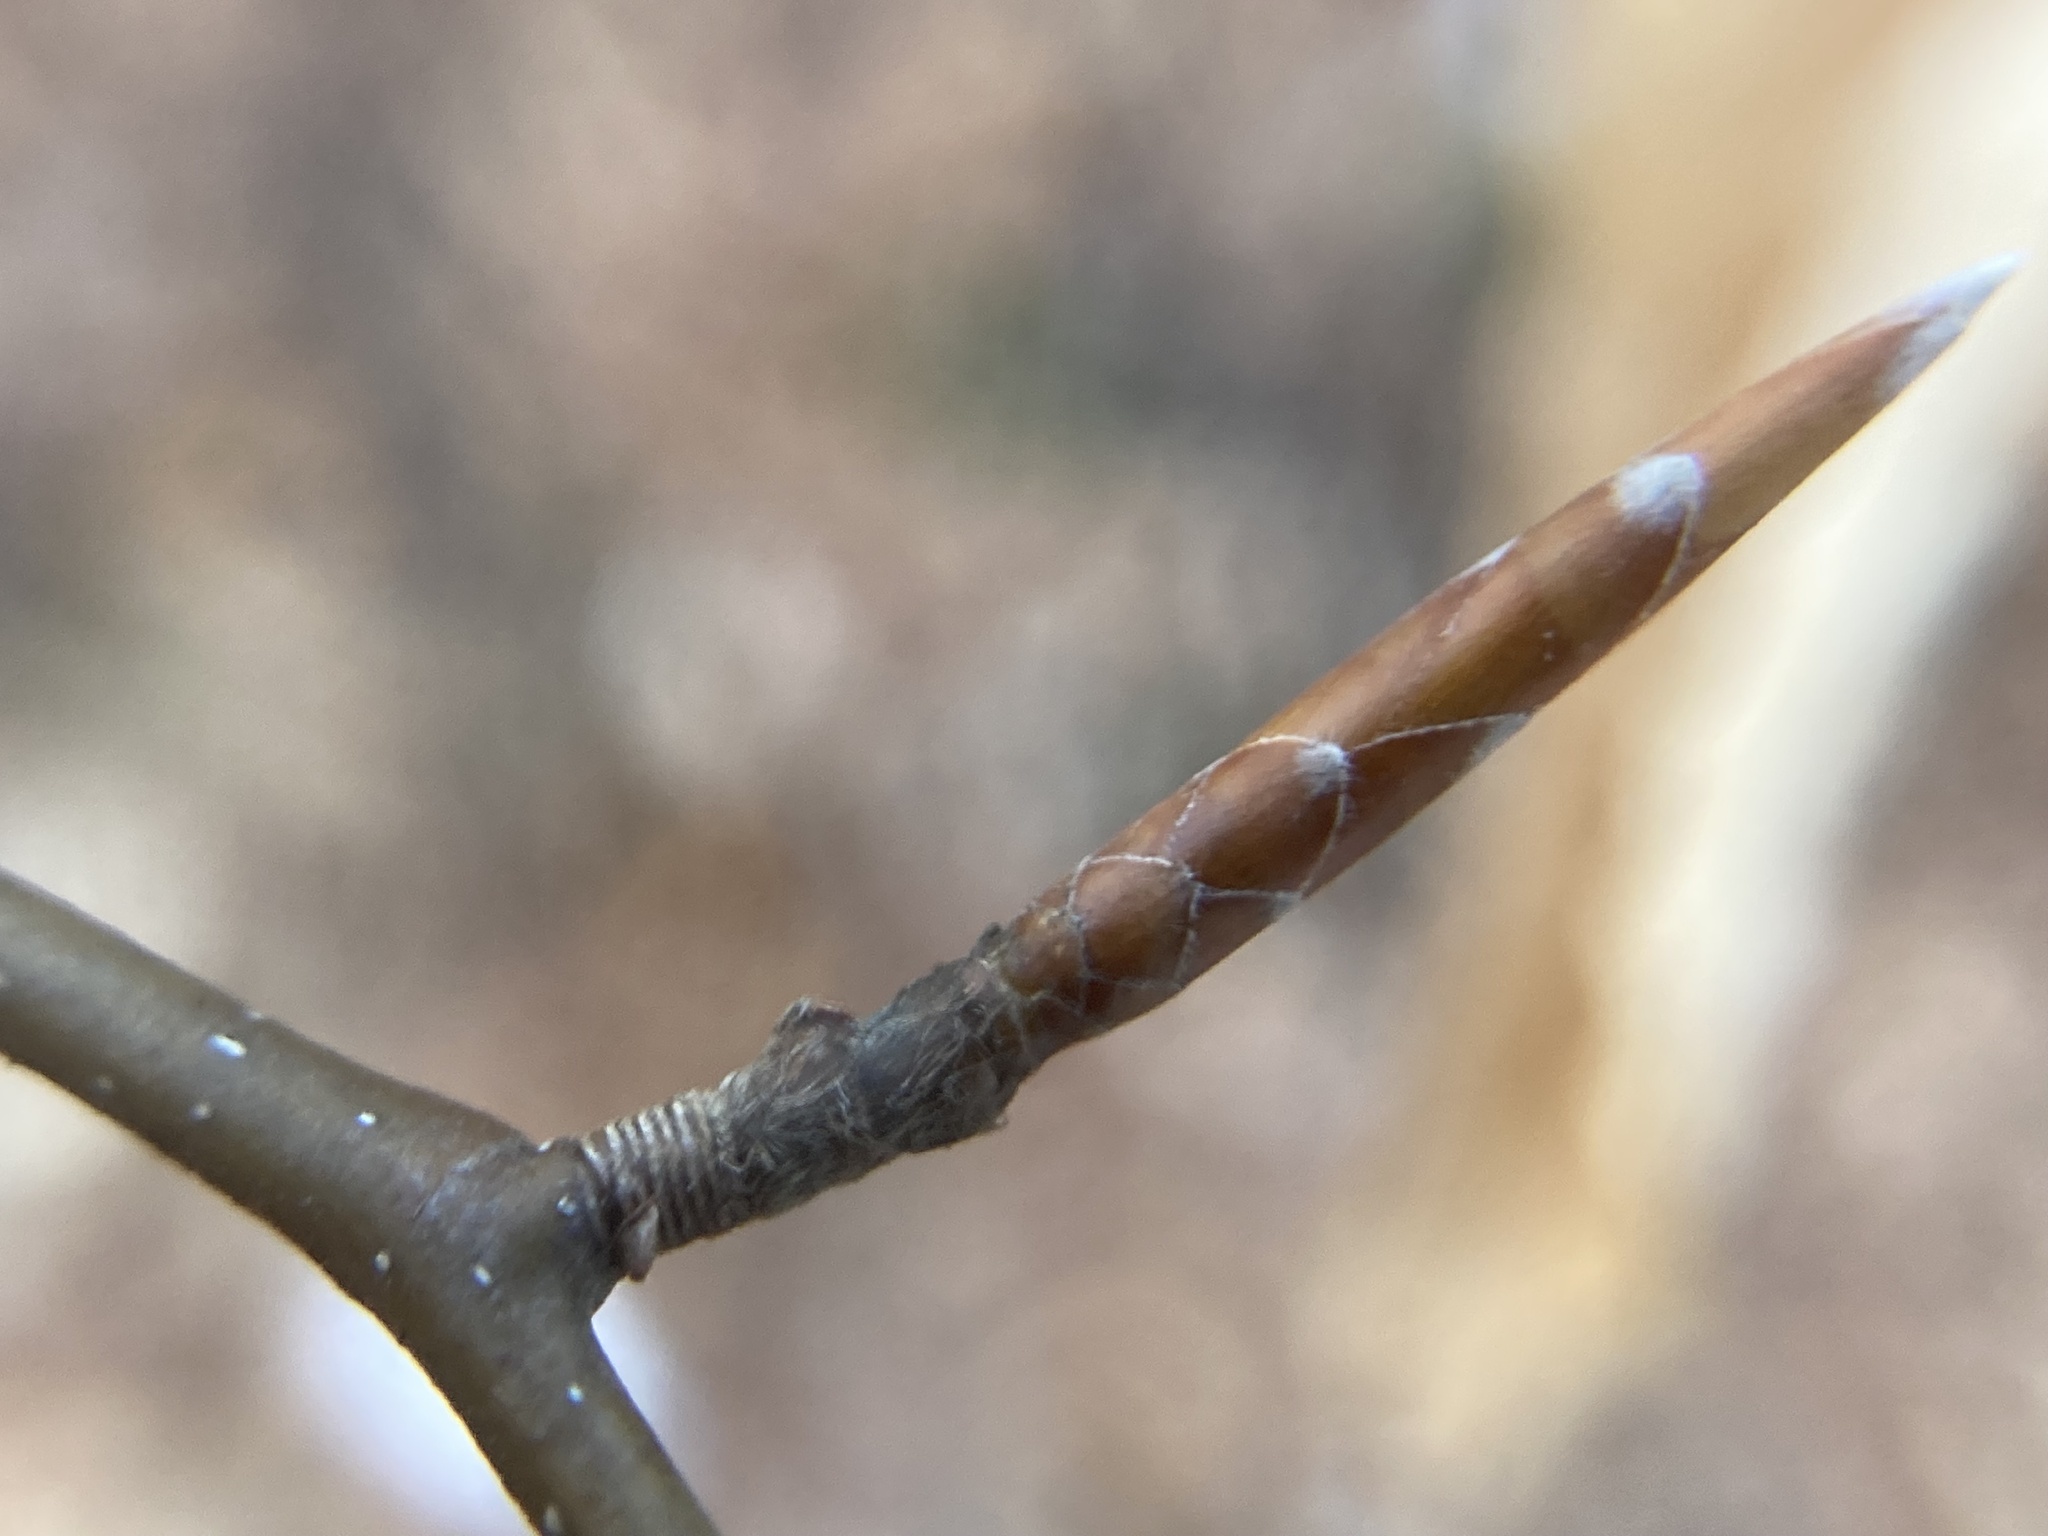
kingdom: Plantae
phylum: Tracheophyta
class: Magnoliopsida
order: Fagales
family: Fagaceae
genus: Fagus
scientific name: Fagus grandifolia
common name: American beech
